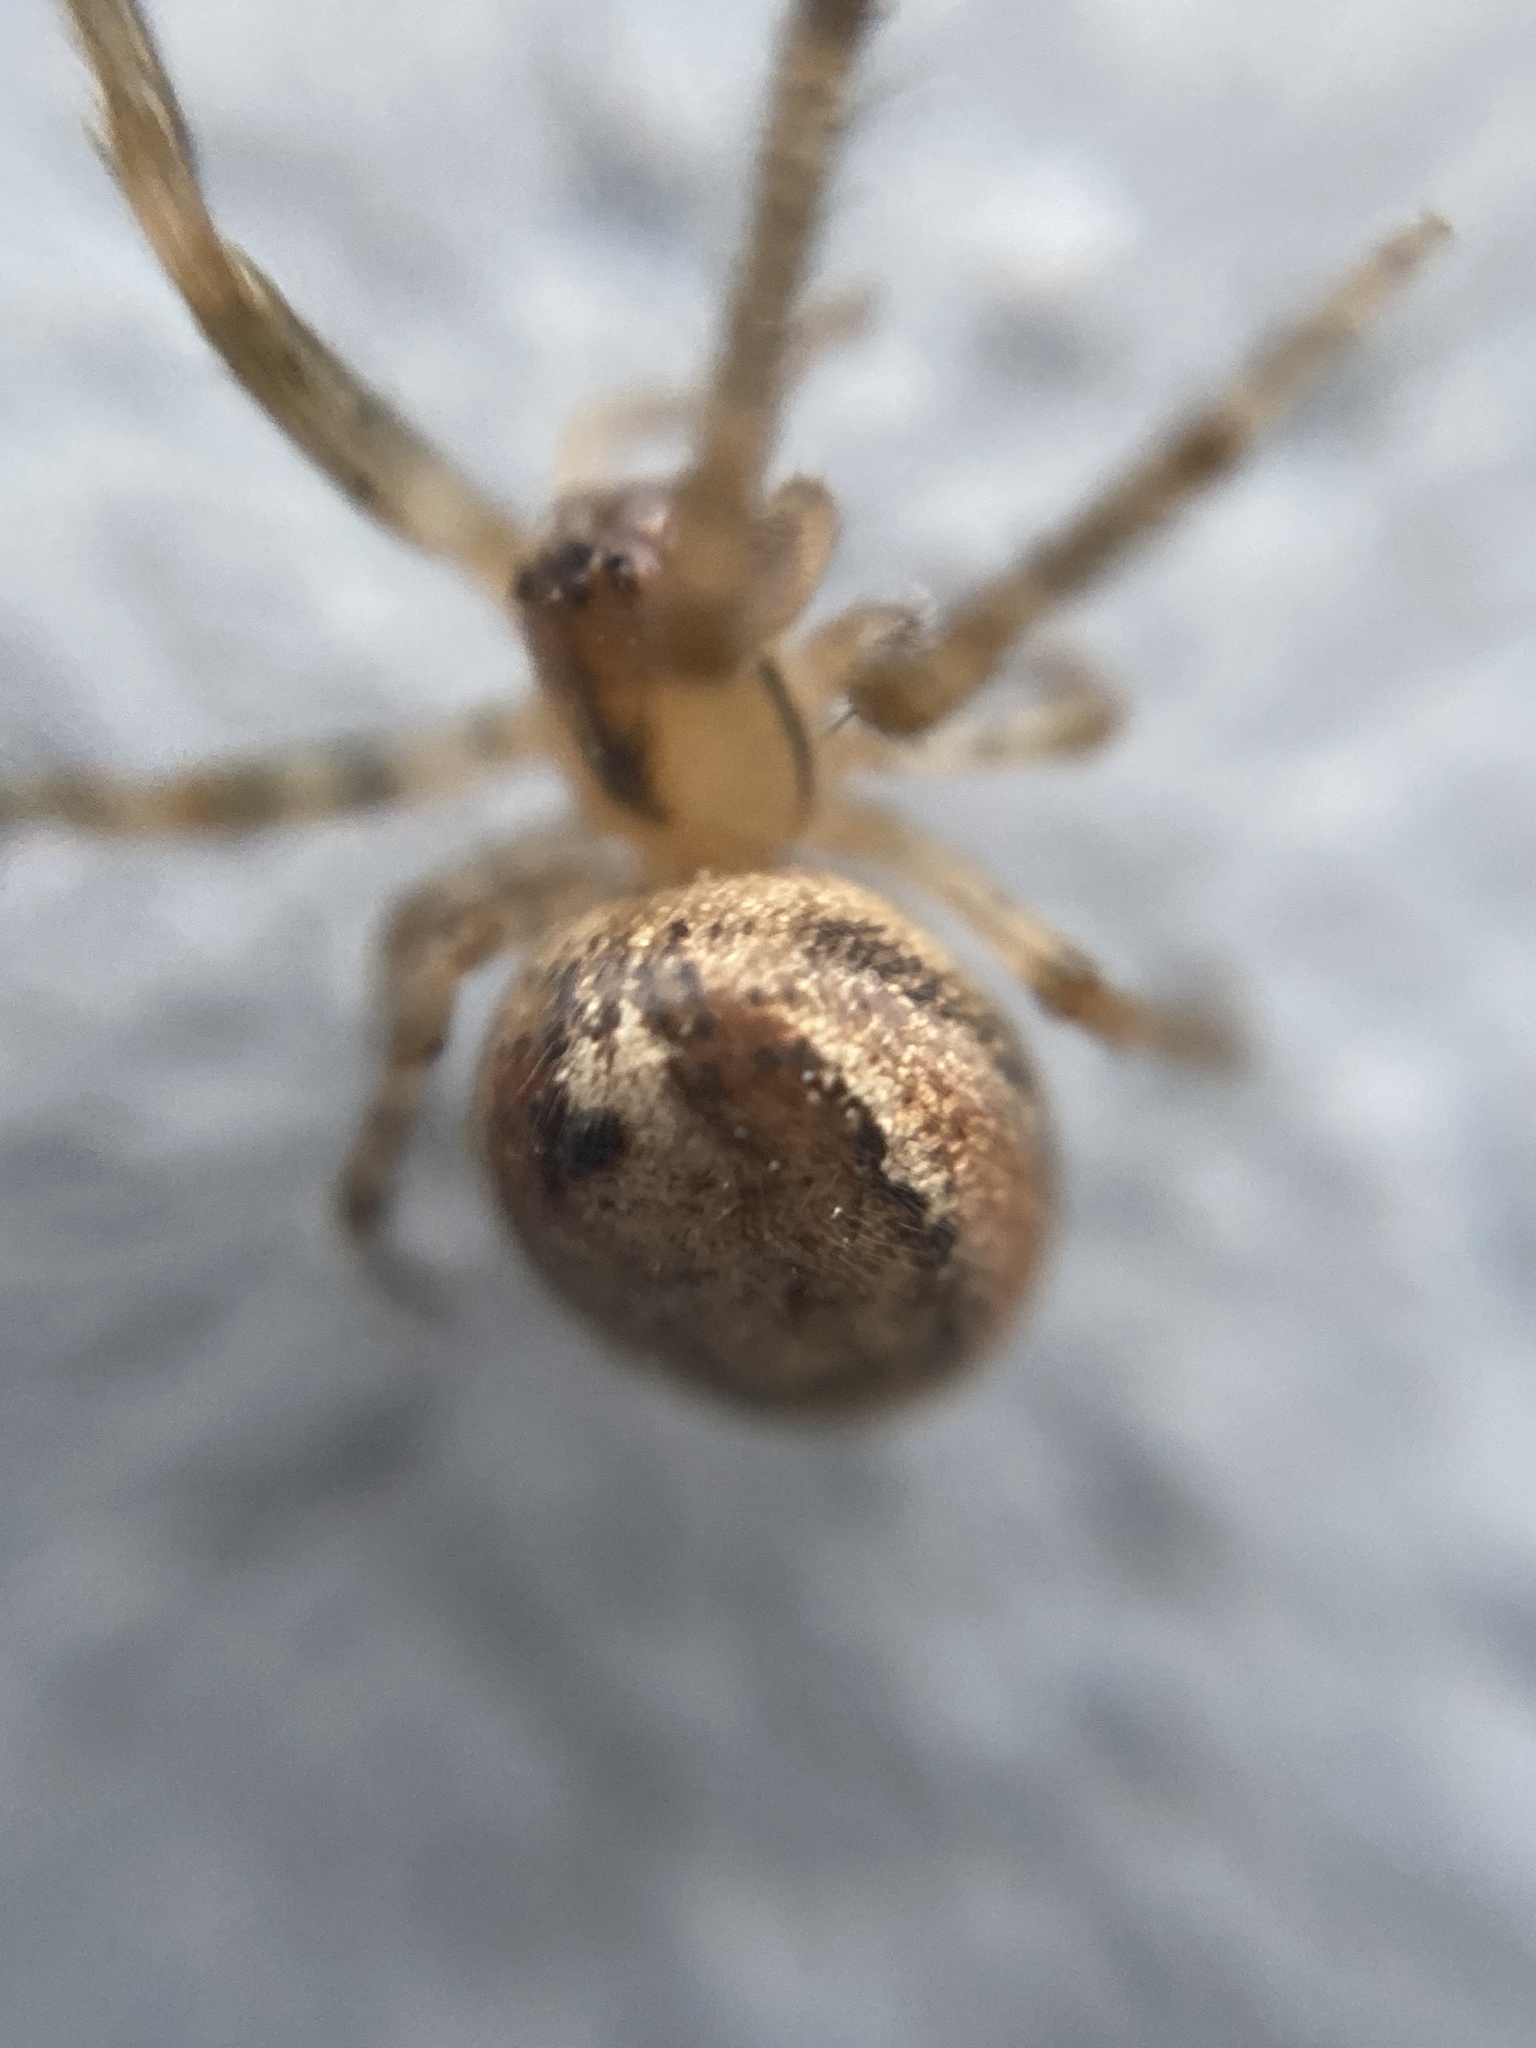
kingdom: Animalia
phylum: Arthropoda
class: Arachnida
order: Araneae
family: Araneidae
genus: Zygiella
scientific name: Zygiella x-notata
